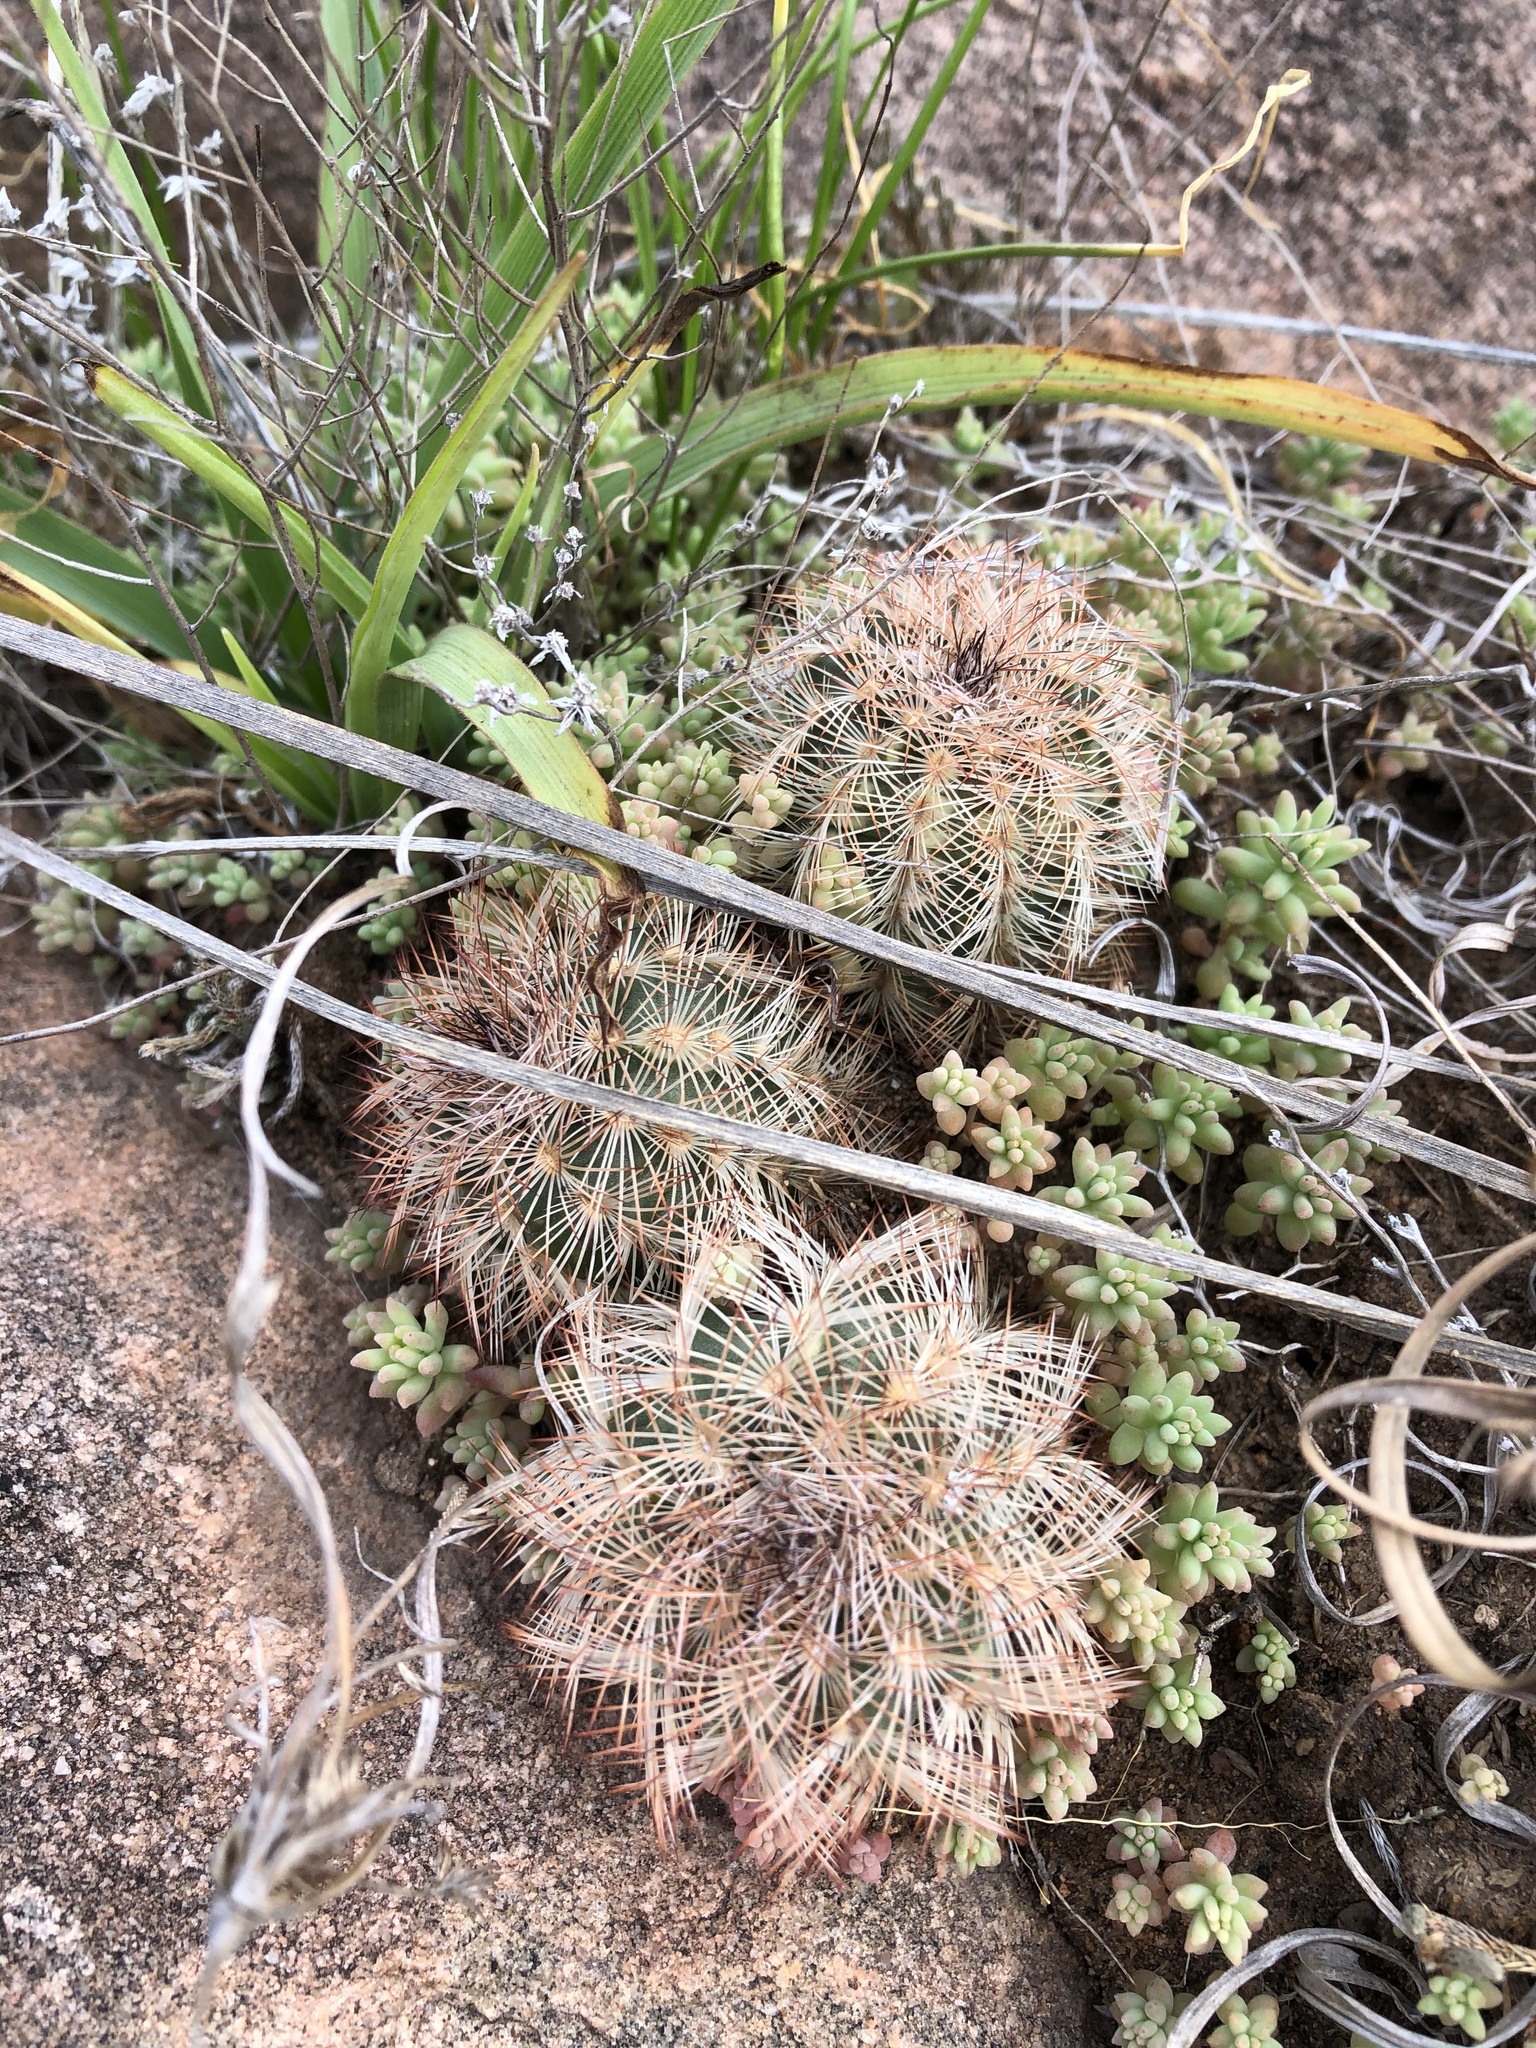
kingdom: Plantae
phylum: Tracheophyta
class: Magnoliopsida
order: Caryophyllales
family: Cactaceae
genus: Echinocereus
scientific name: Echinocereus reichenbachii
